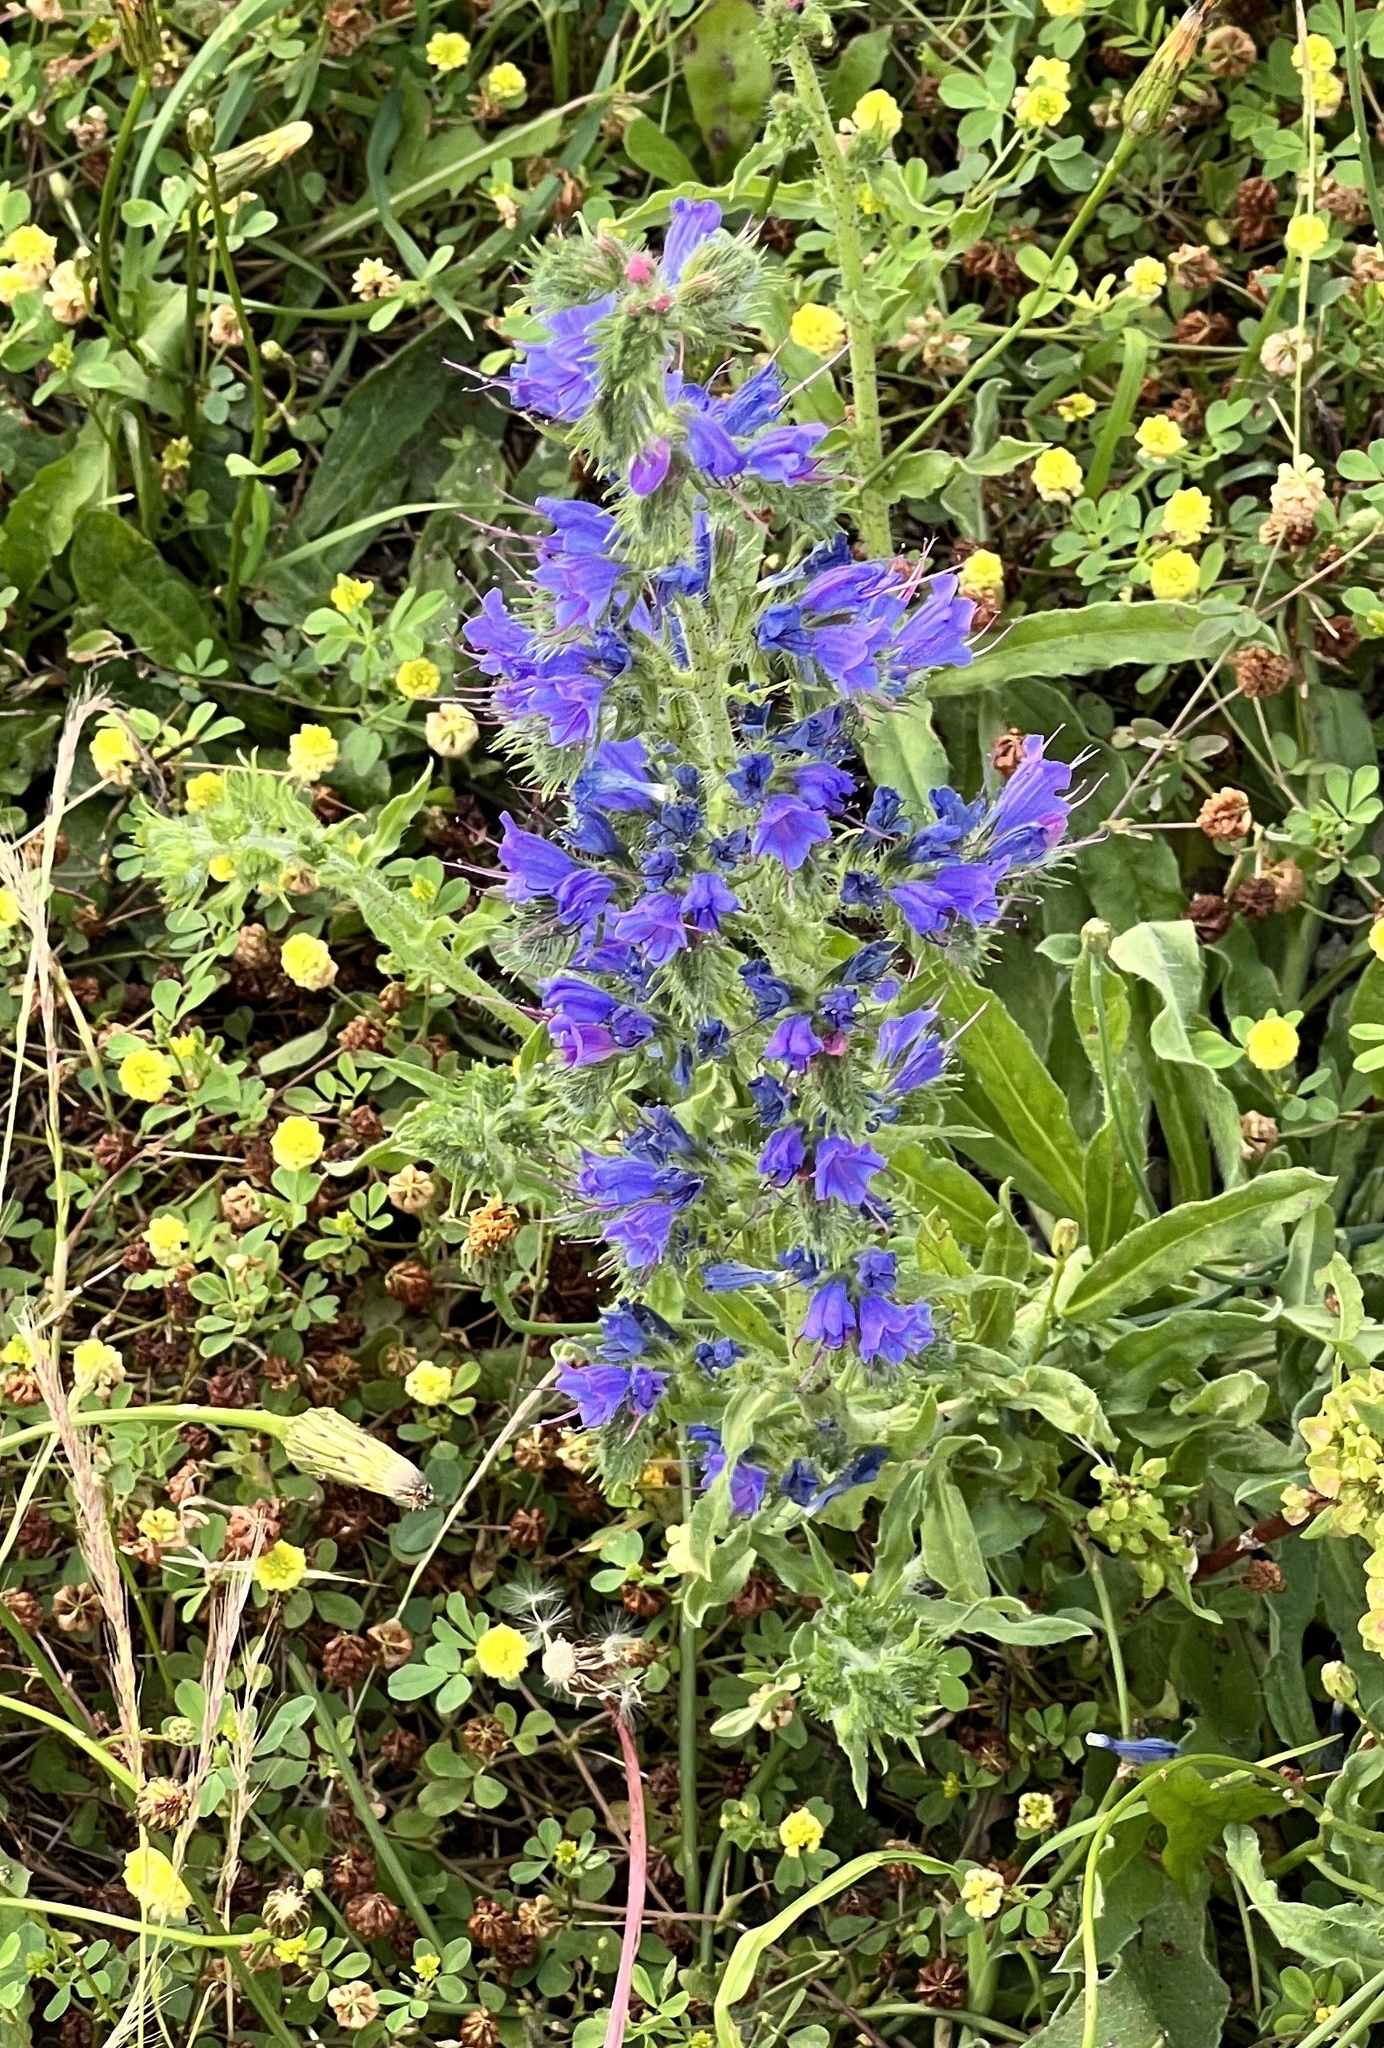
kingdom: Plantae
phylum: Tracheophyta
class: Magnoliopsida
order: Boraginales
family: Boraginaceae
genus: Echium
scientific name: Echium vulgare
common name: Common viper's bugloss
